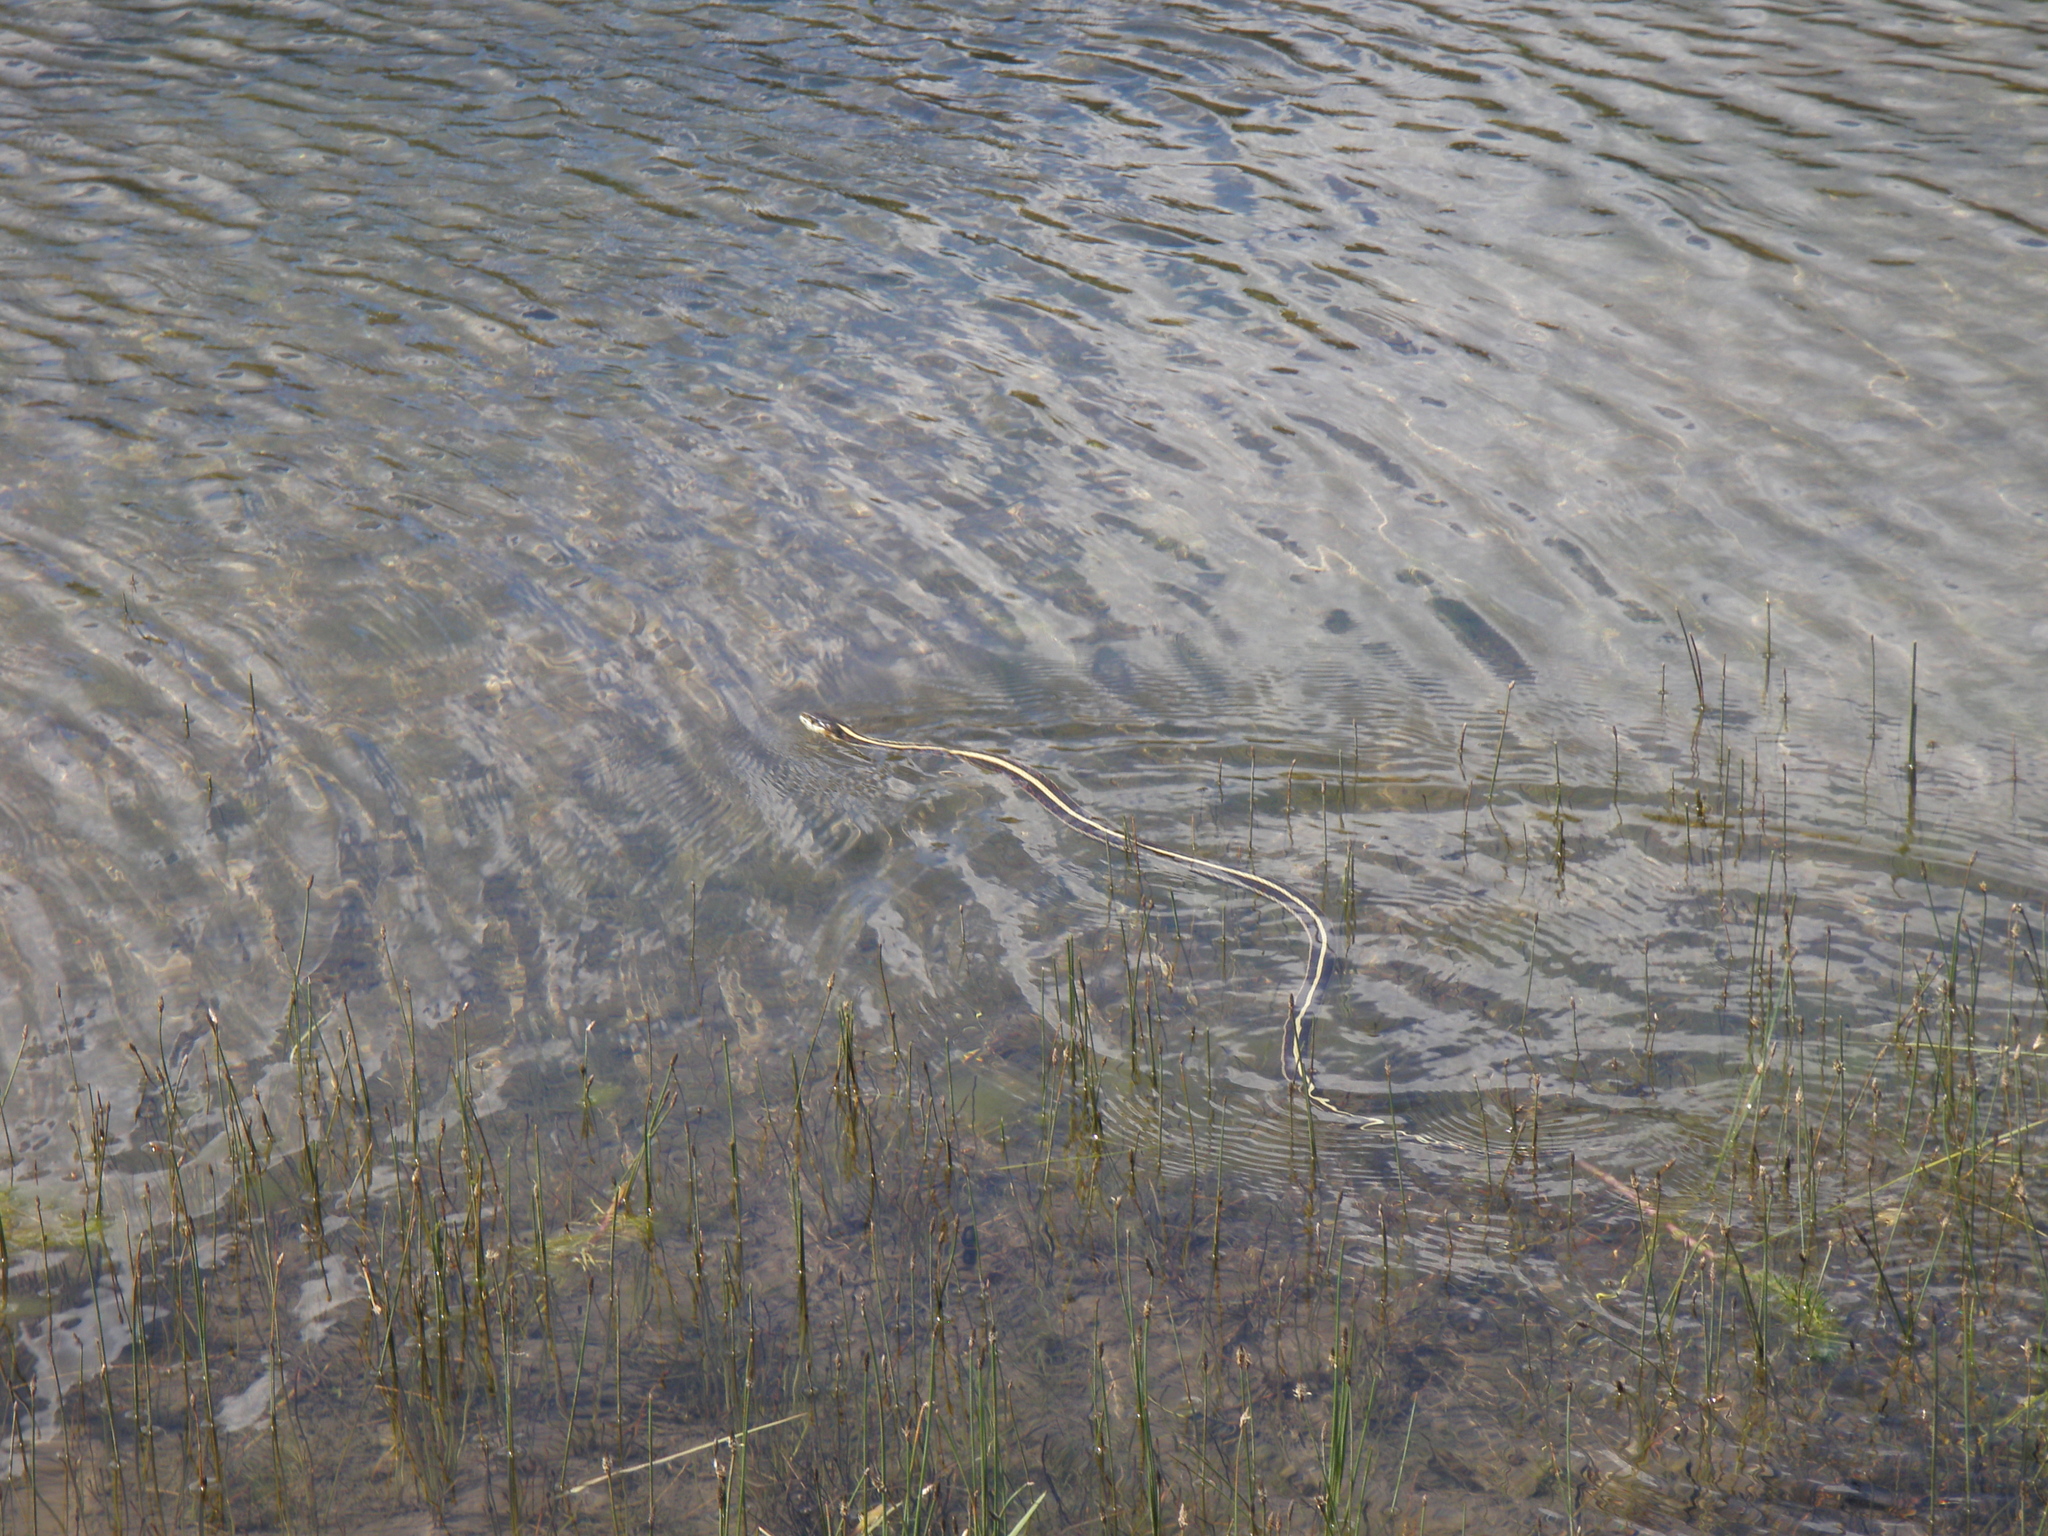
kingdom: Animalia
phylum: Chordata
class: Squamata
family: Colubridae
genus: Thamnophis
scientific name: Thamnophis sirtalis
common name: Common garter snake
